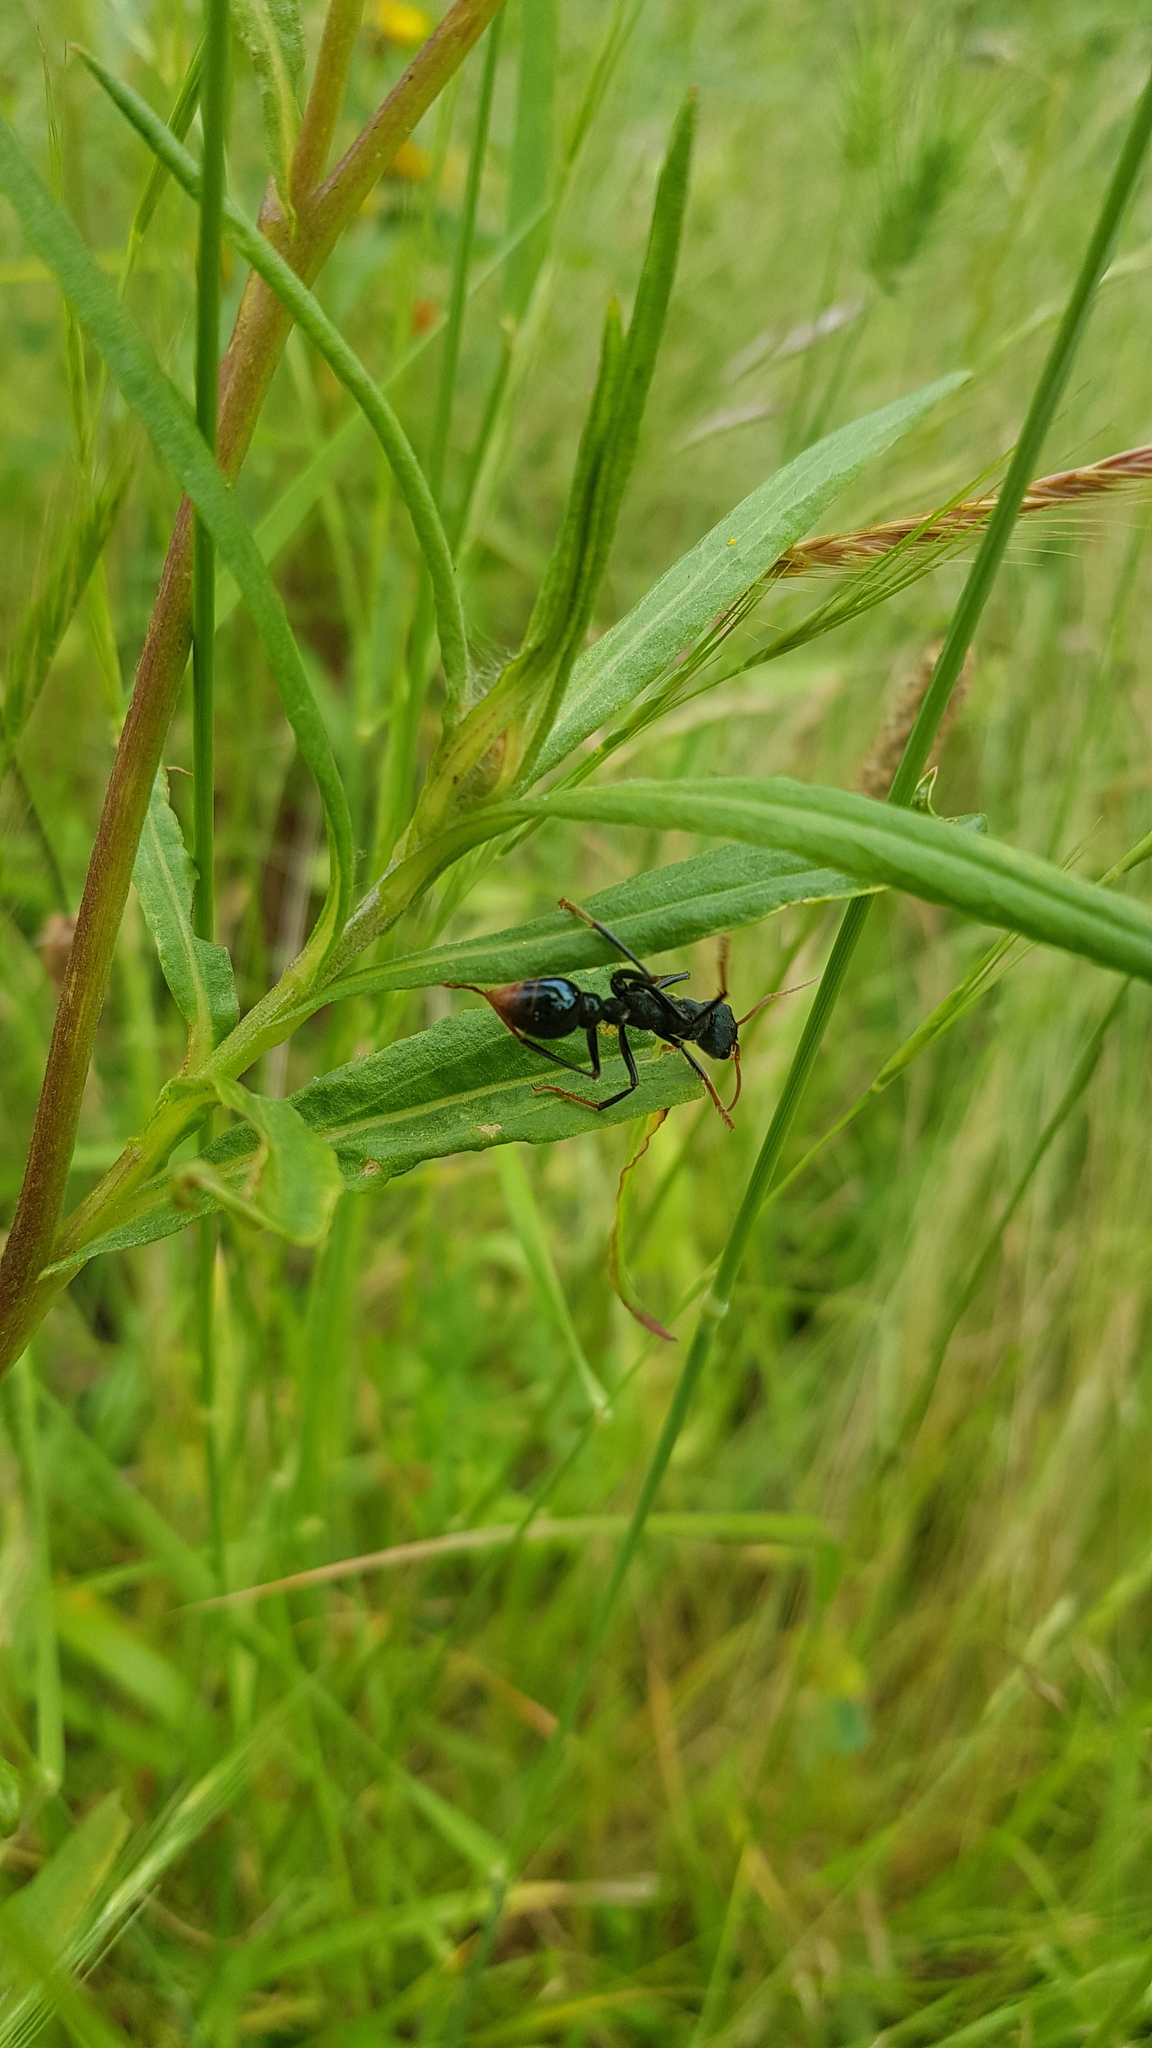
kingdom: Animalia
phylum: Arthropoda
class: Insecta
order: Hymenoptera
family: Formicidae
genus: Myrmecia
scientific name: Myrmecia tarsata
